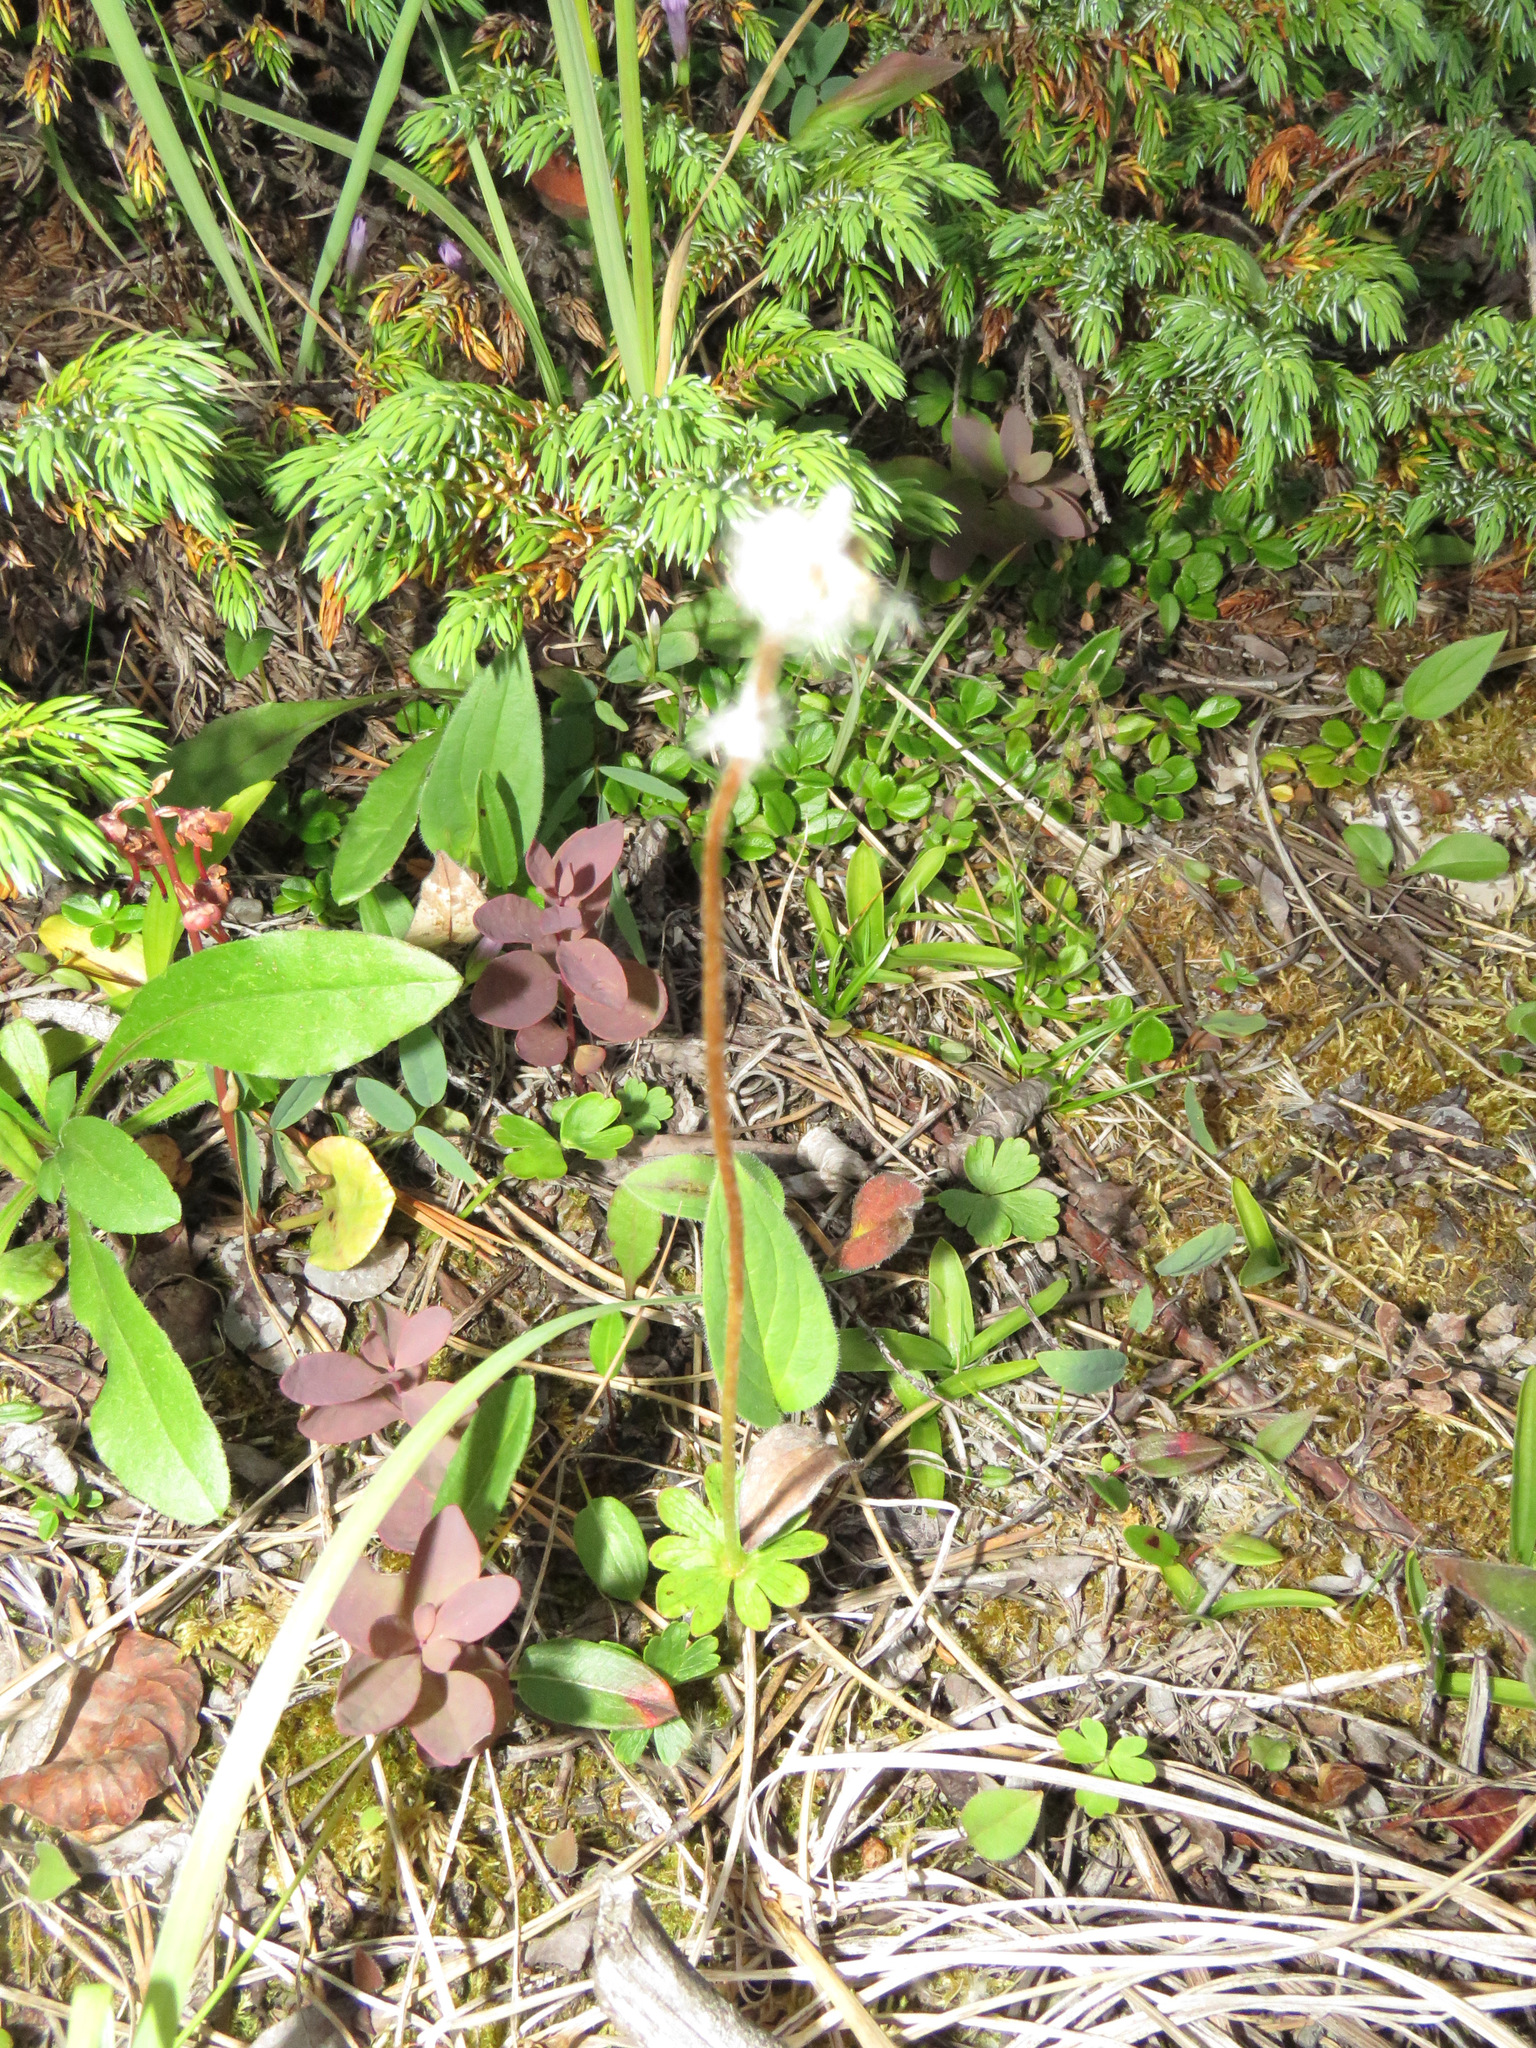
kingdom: Plantae
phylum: Tracheophyta
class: Magnoliopsida
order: Ranunculales
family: Ranunculaceae
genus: Anemone
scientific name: Anemone parviflora
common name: Northern anemone
